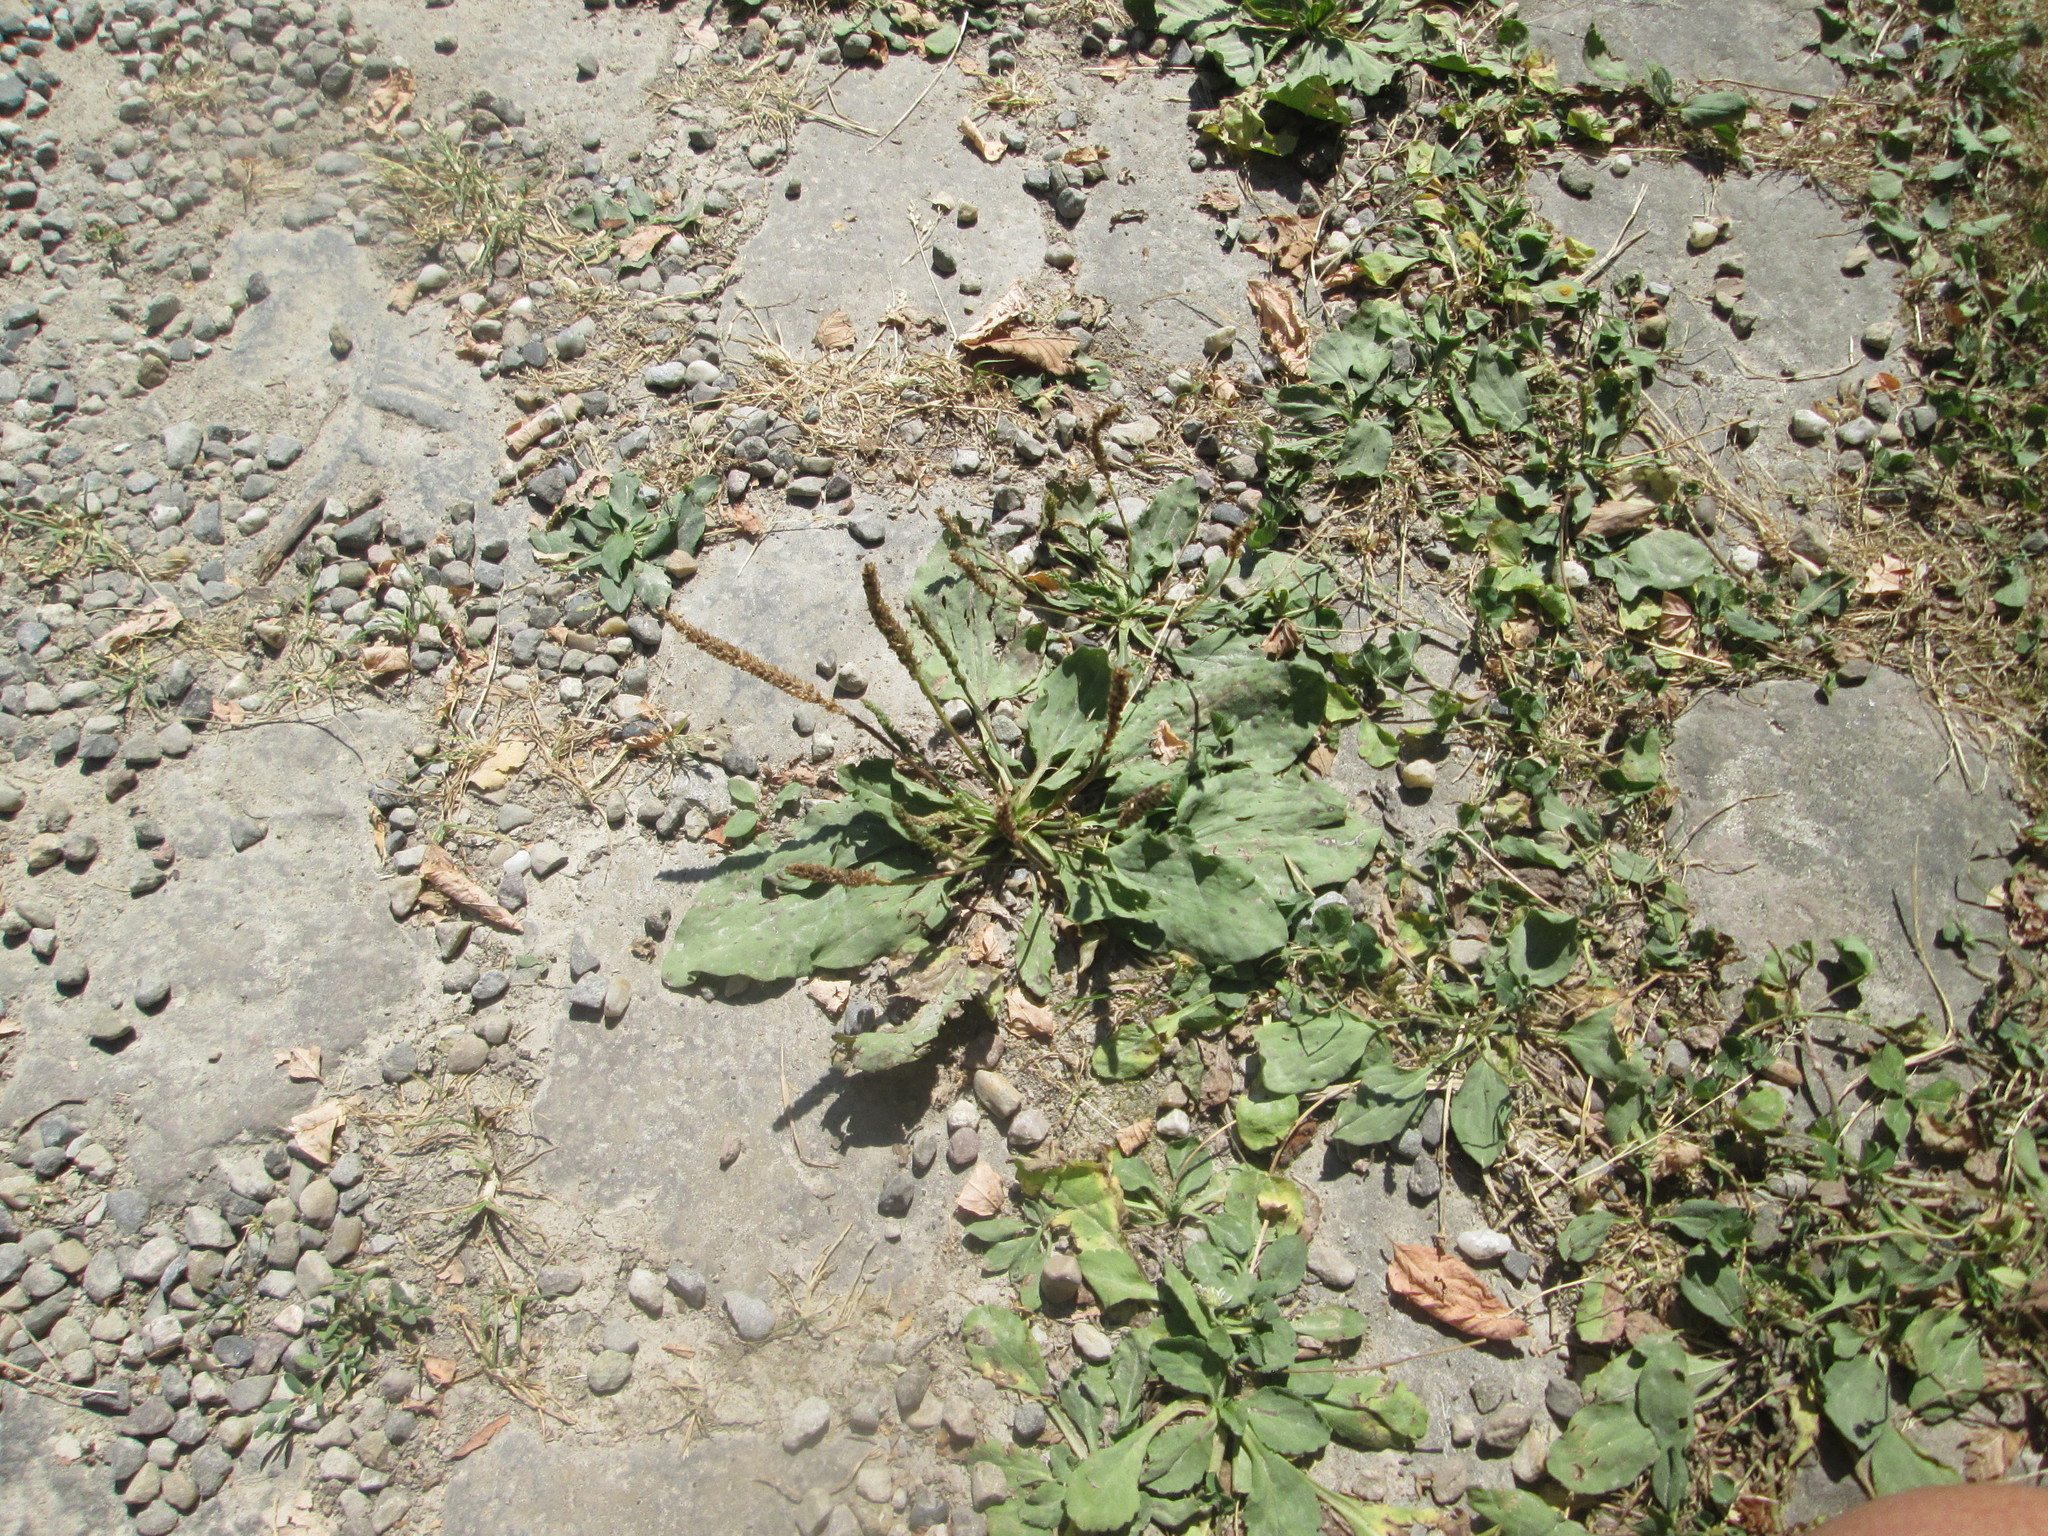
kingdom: Plantae
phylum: Tracheophyta
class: Magnoliopsida
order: Lamiales
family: Plantaginaceae
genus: Plantago
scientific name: Plantago major
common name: Common plantain
